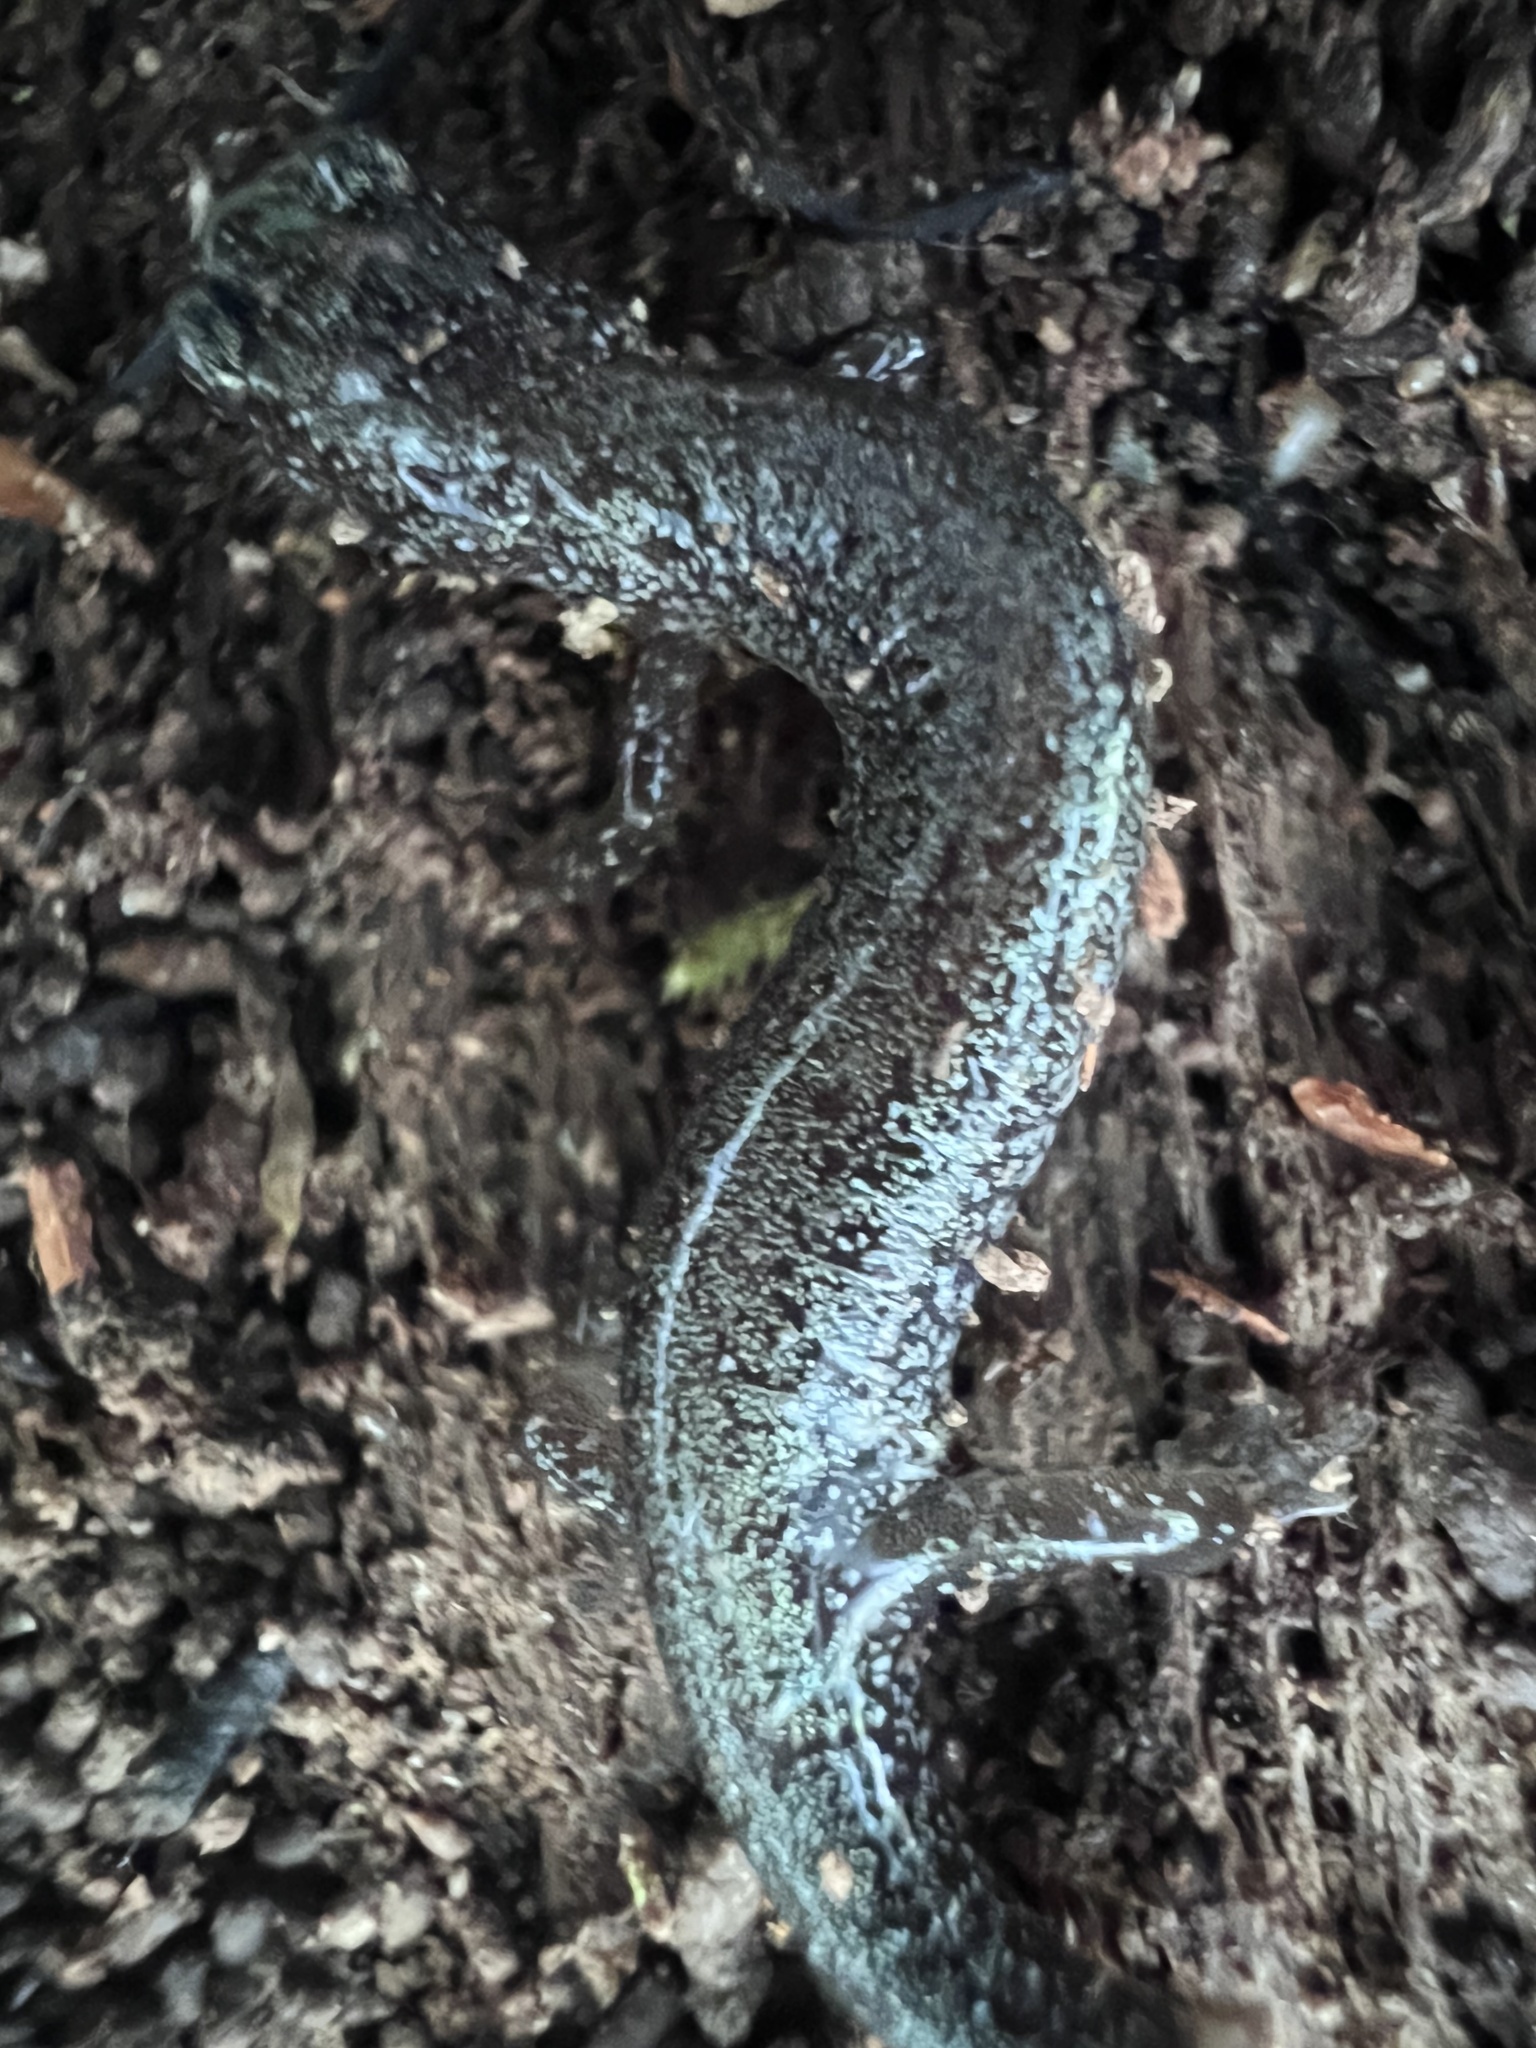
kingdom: Animalia
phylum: Chordata
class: Amphibia
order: Caudata
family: Plethodontidae
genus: Plethodon
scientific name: Plethodon cinereus
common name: Redback salamander
